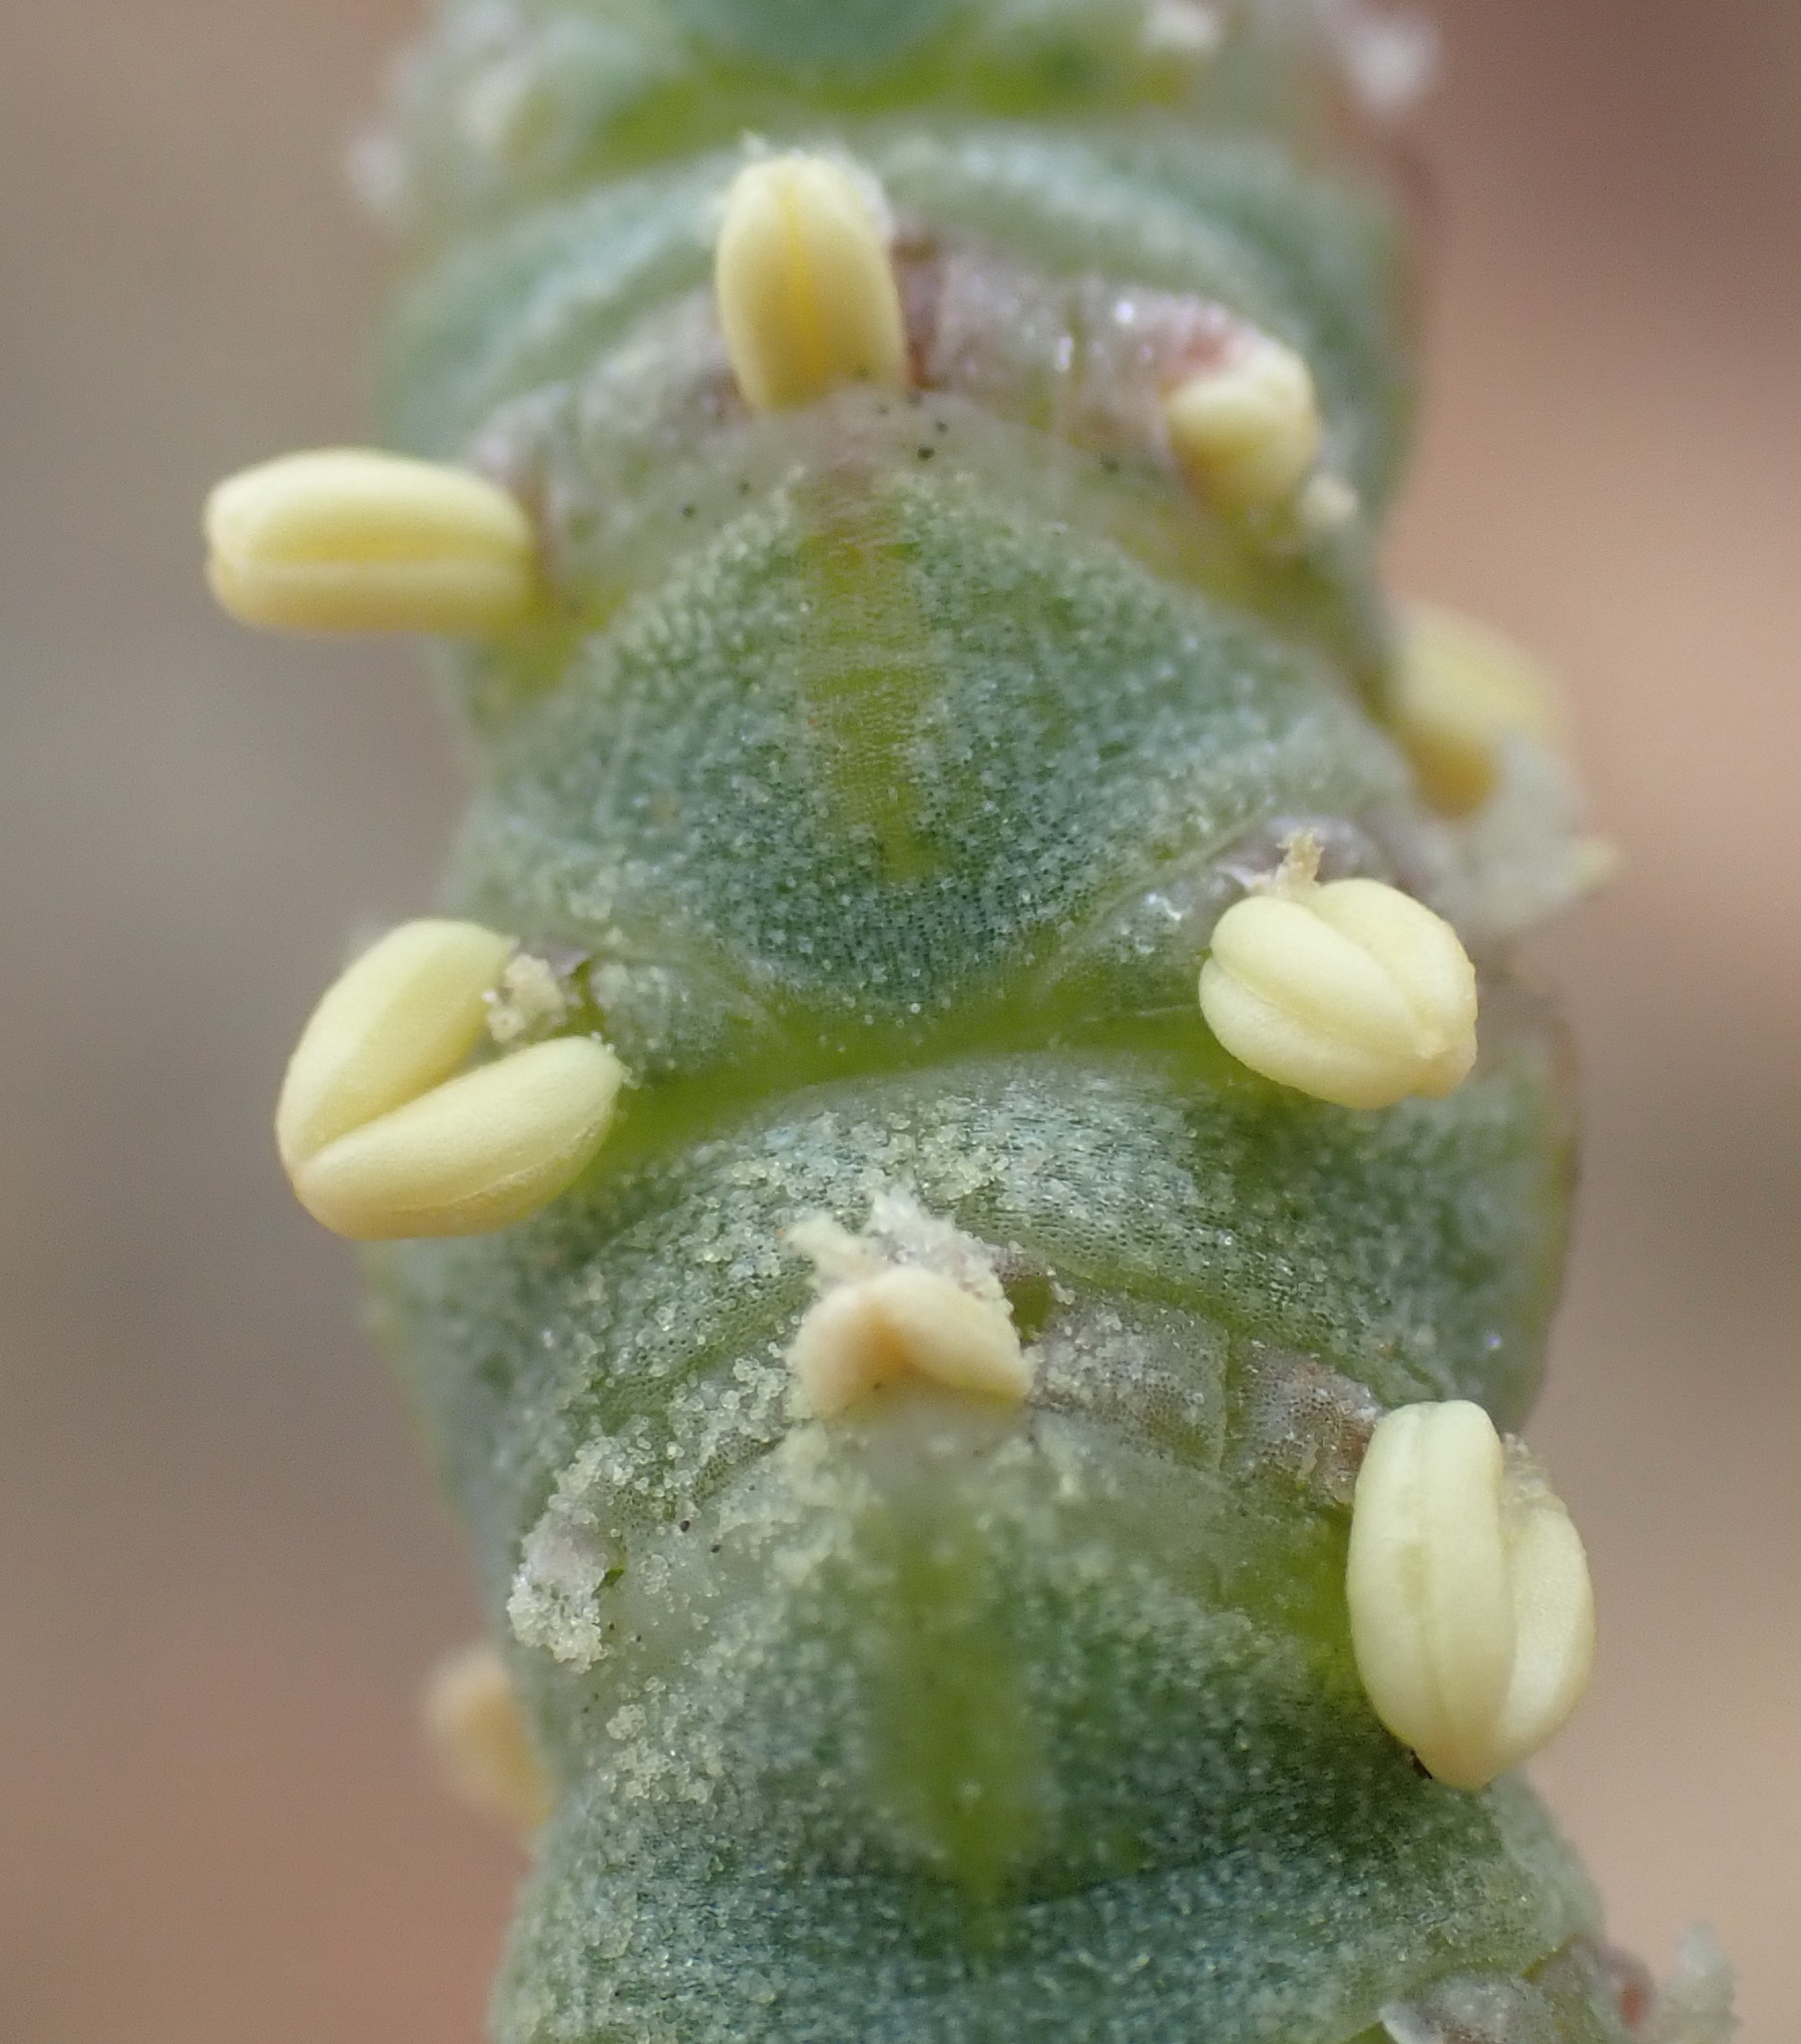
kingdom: Plantae
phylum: Tracheophyta
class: Magnoliopsida
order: Caryophyllales
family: Amaranthaceae
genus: Salicornia
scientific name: Salicornia littorea
